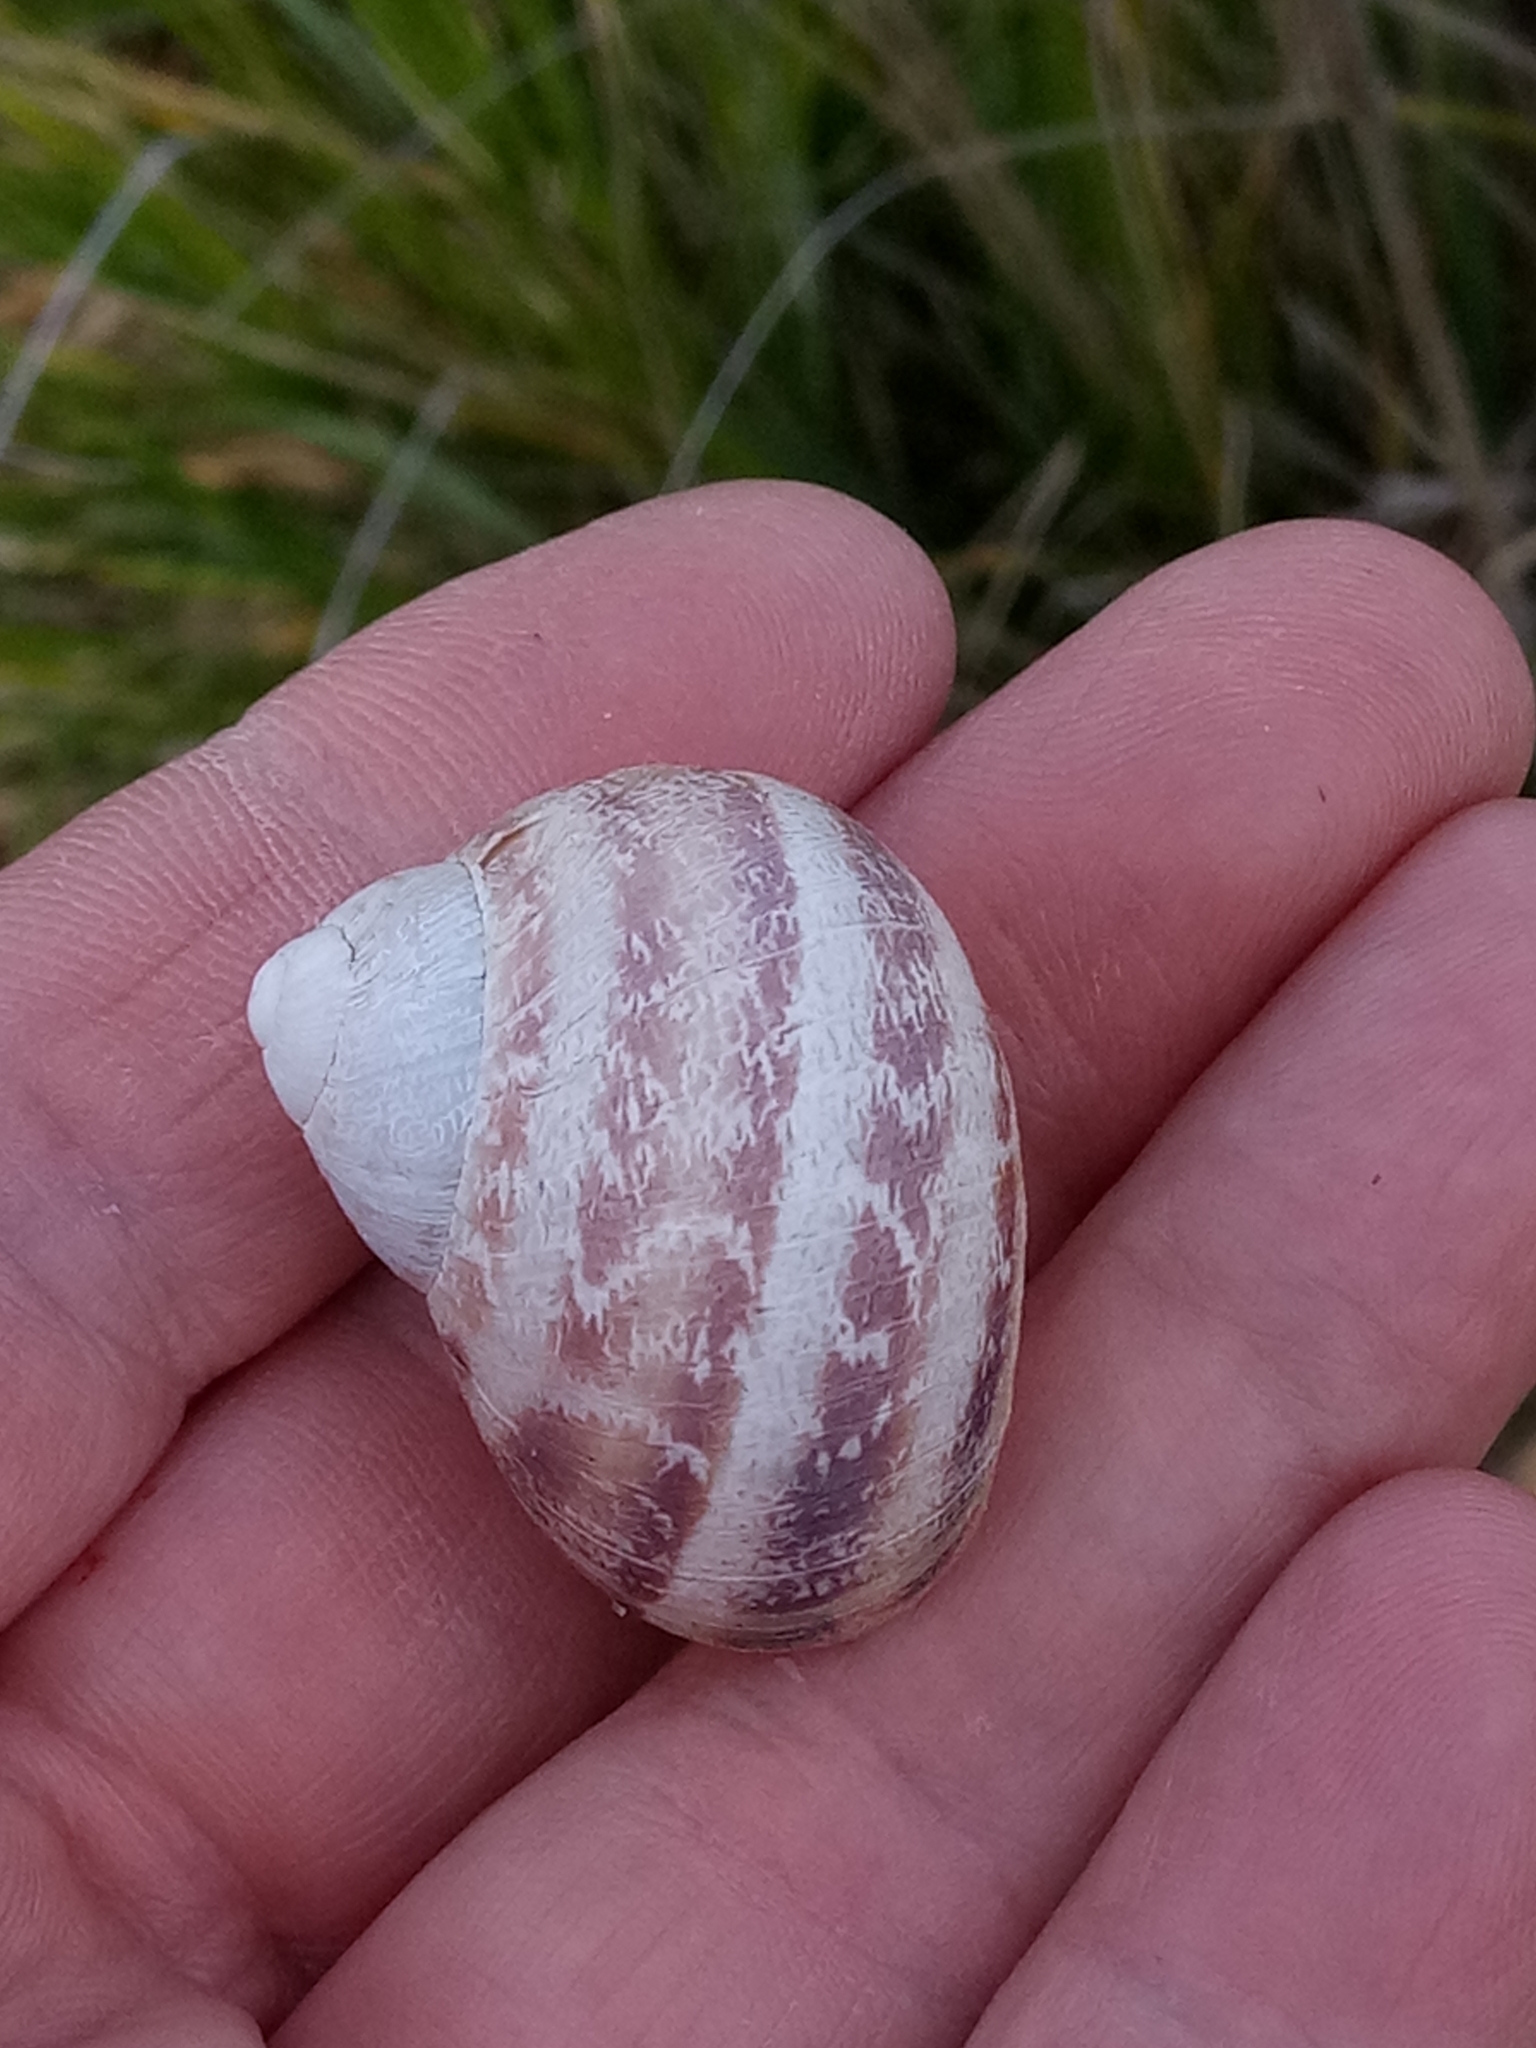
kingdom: Animalia
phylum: Mollusca
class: Gastropoda
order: Stylommatophora
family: Helicidae
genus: Cornu
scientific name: Cornu aspersum
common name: Brown garden snail
